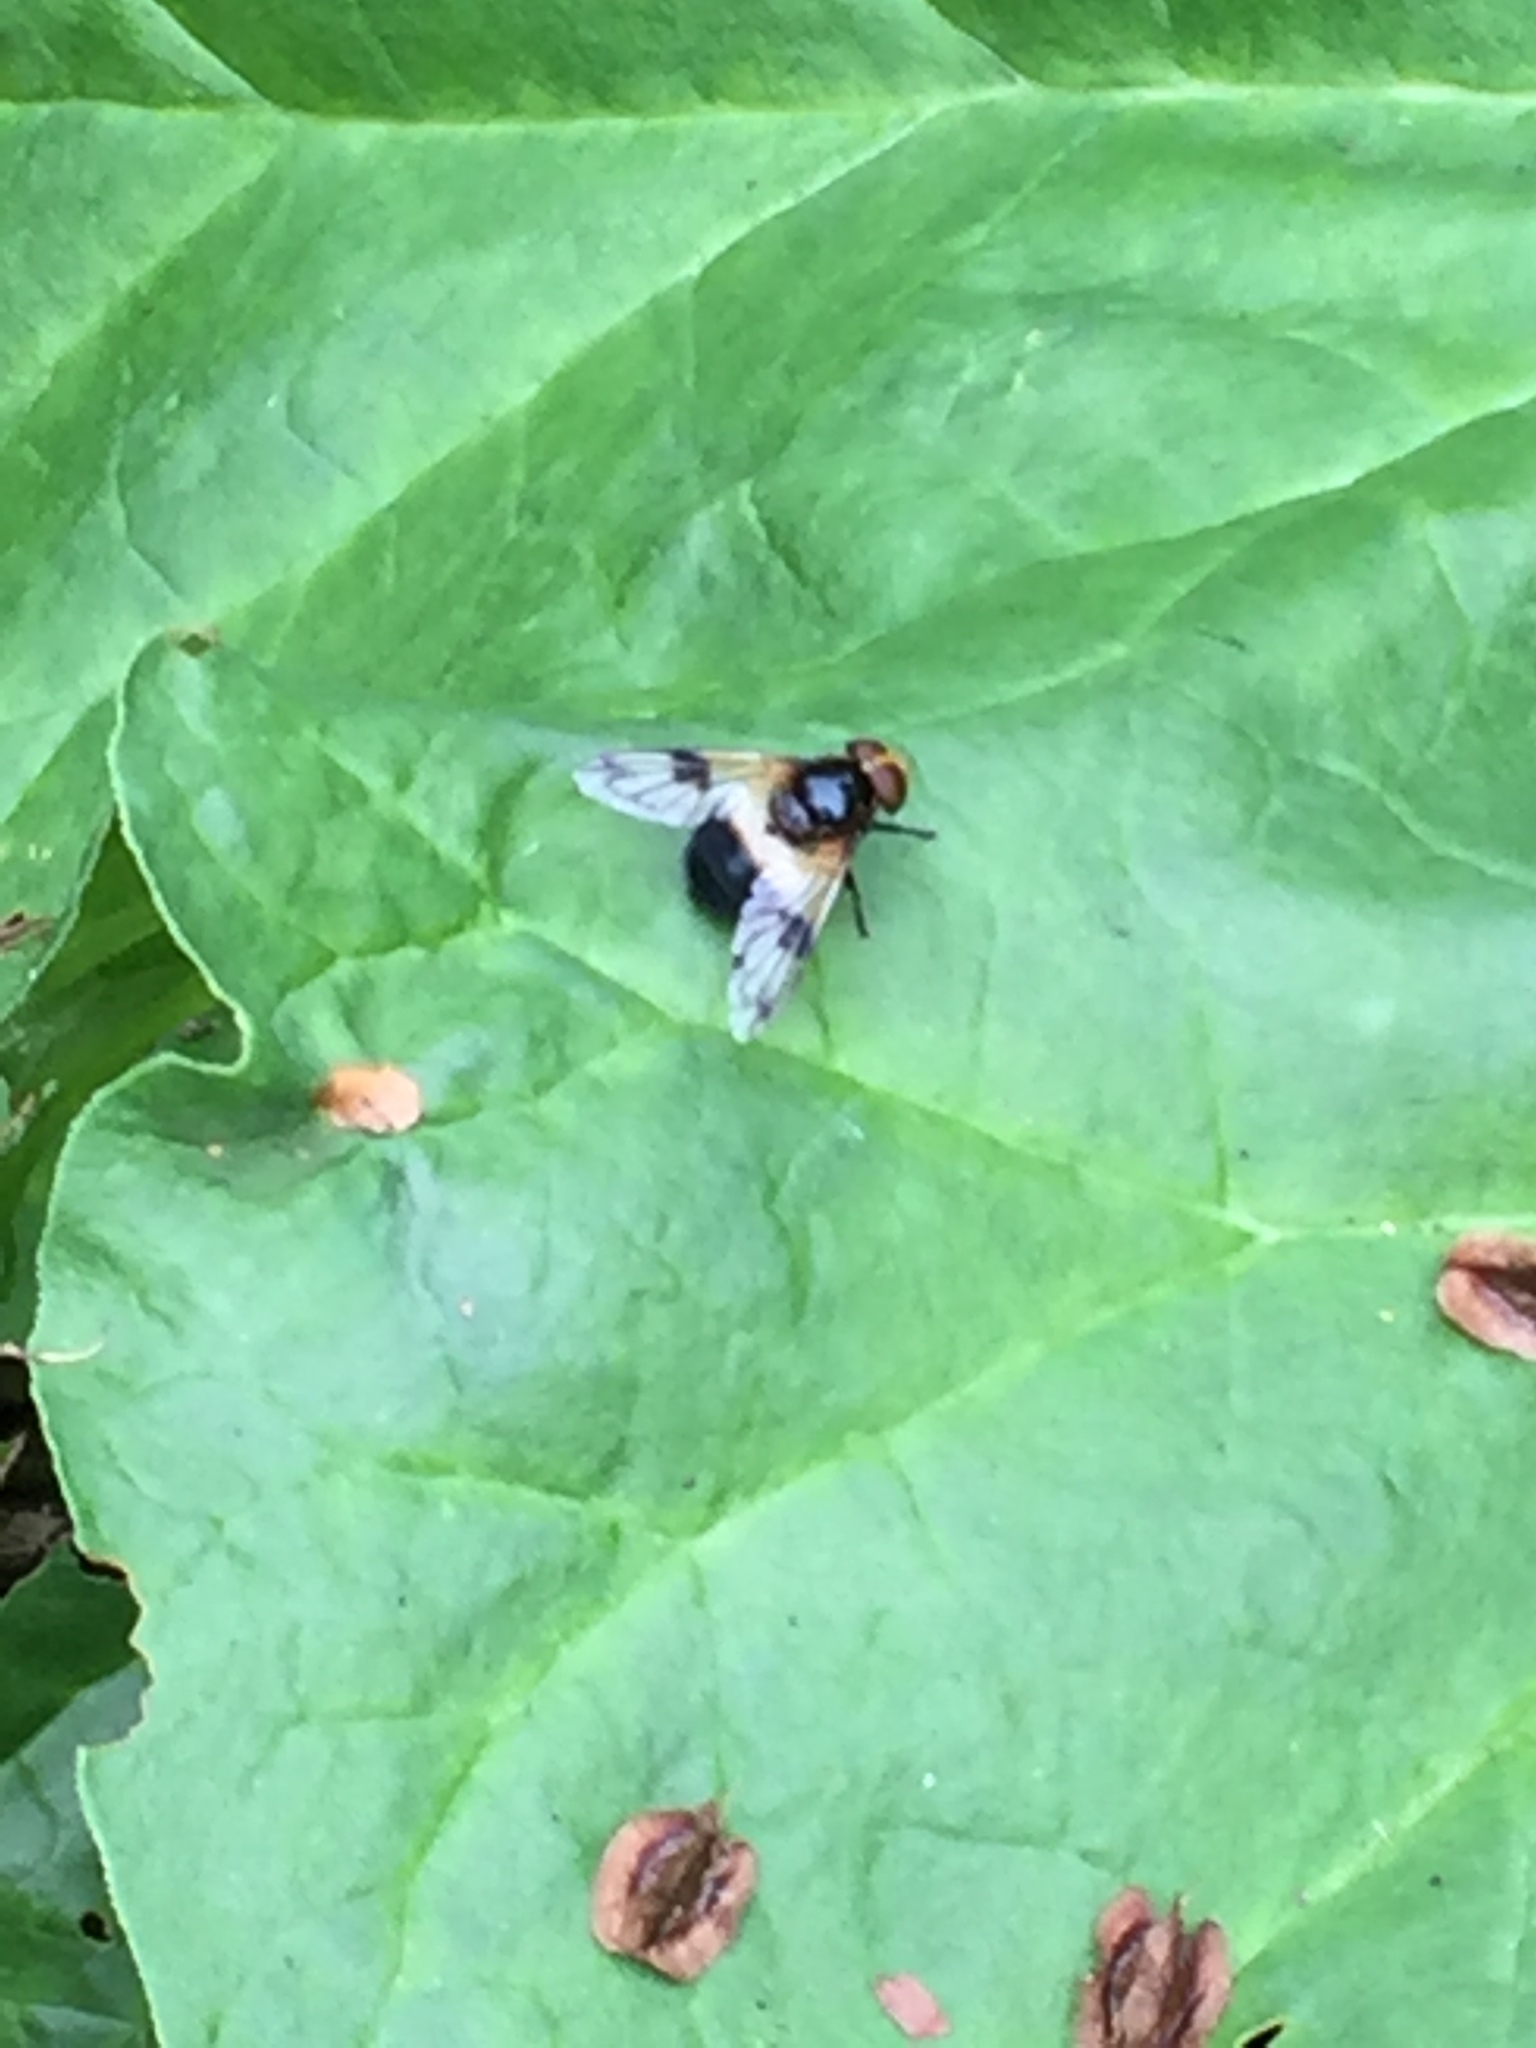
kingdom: Animalia
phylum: Arthropoda
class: Insecta
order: Diptera
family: Syrphidae
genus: Volucella
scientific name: Volucella pellucens
